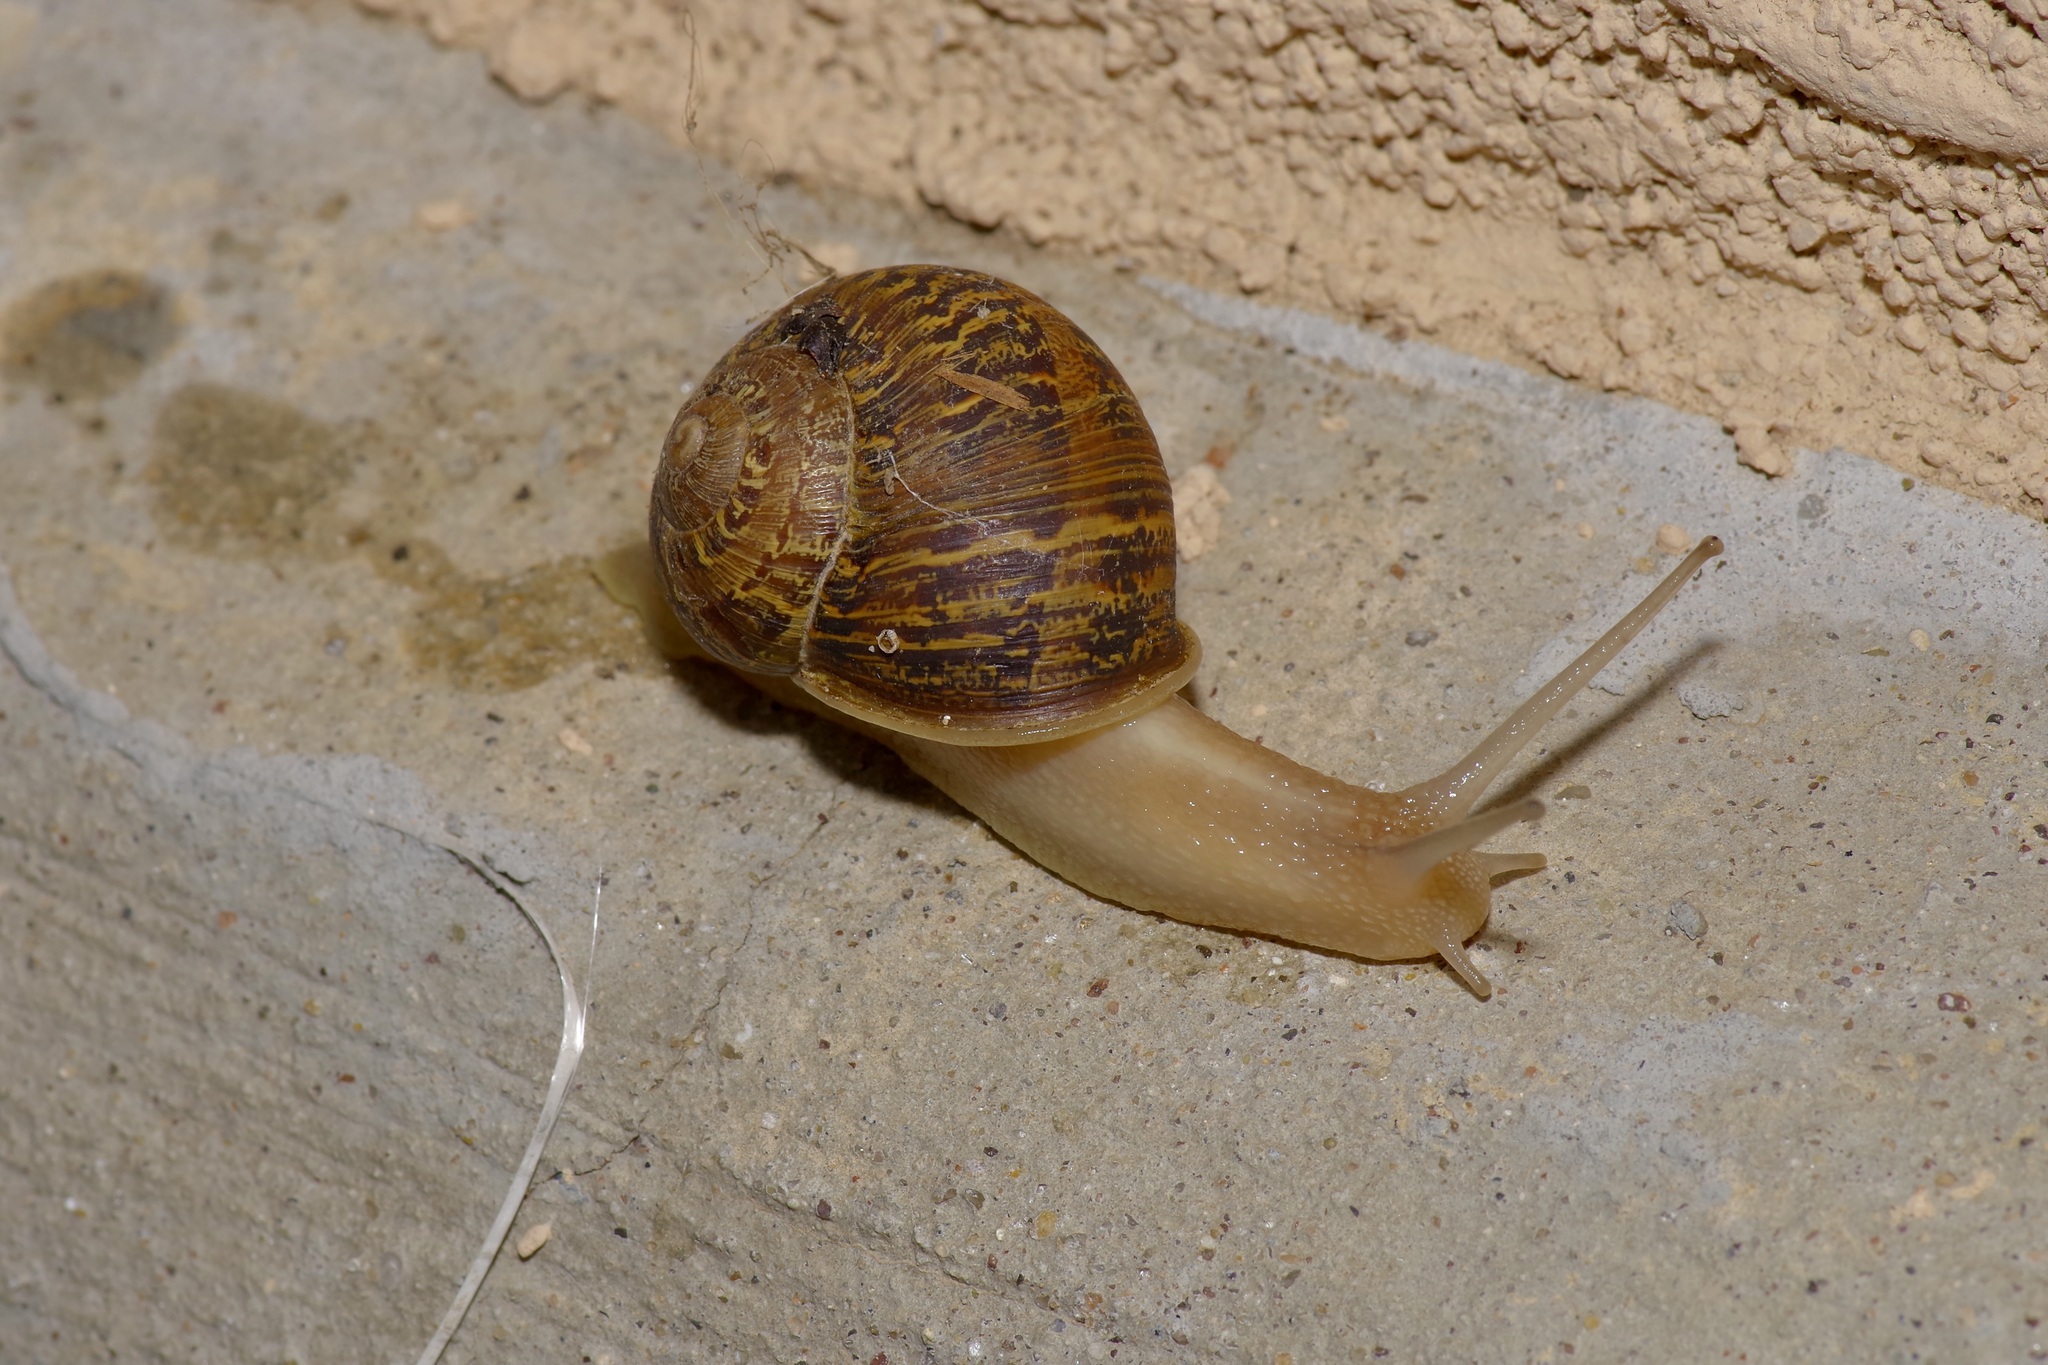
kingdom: Animalia
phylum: Mollusca
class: Gastropoda
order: Stylommatophora
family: Helicidae
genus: Cornu
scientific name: Cornu aspersum
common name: Brown garden snail
